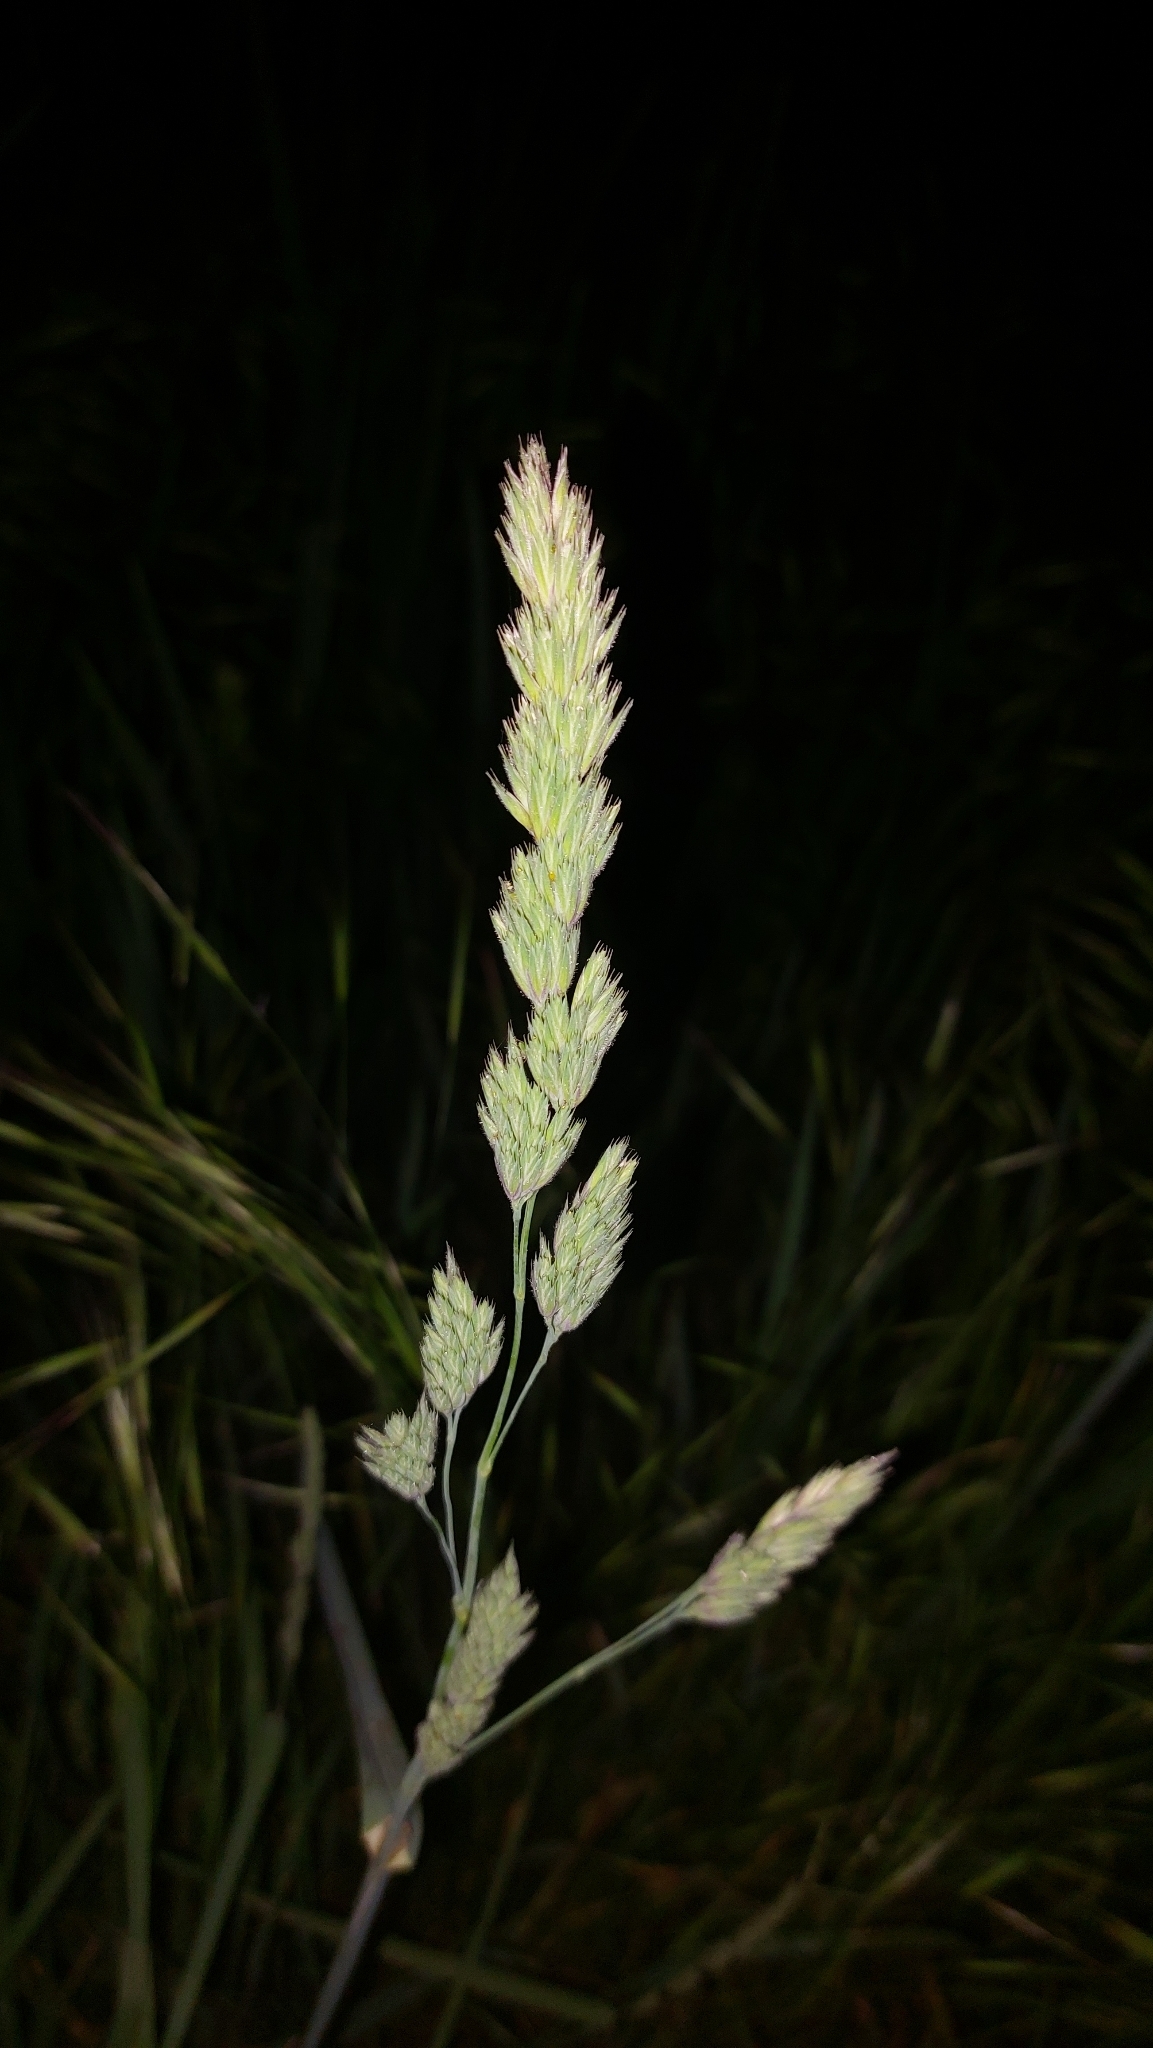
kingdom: Plantae
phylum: Tracheophyta
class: Liliopsida
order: Poales
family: Poaceae
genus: Dactylis
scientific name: Dactylis glomerata
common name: Orchardgrass
